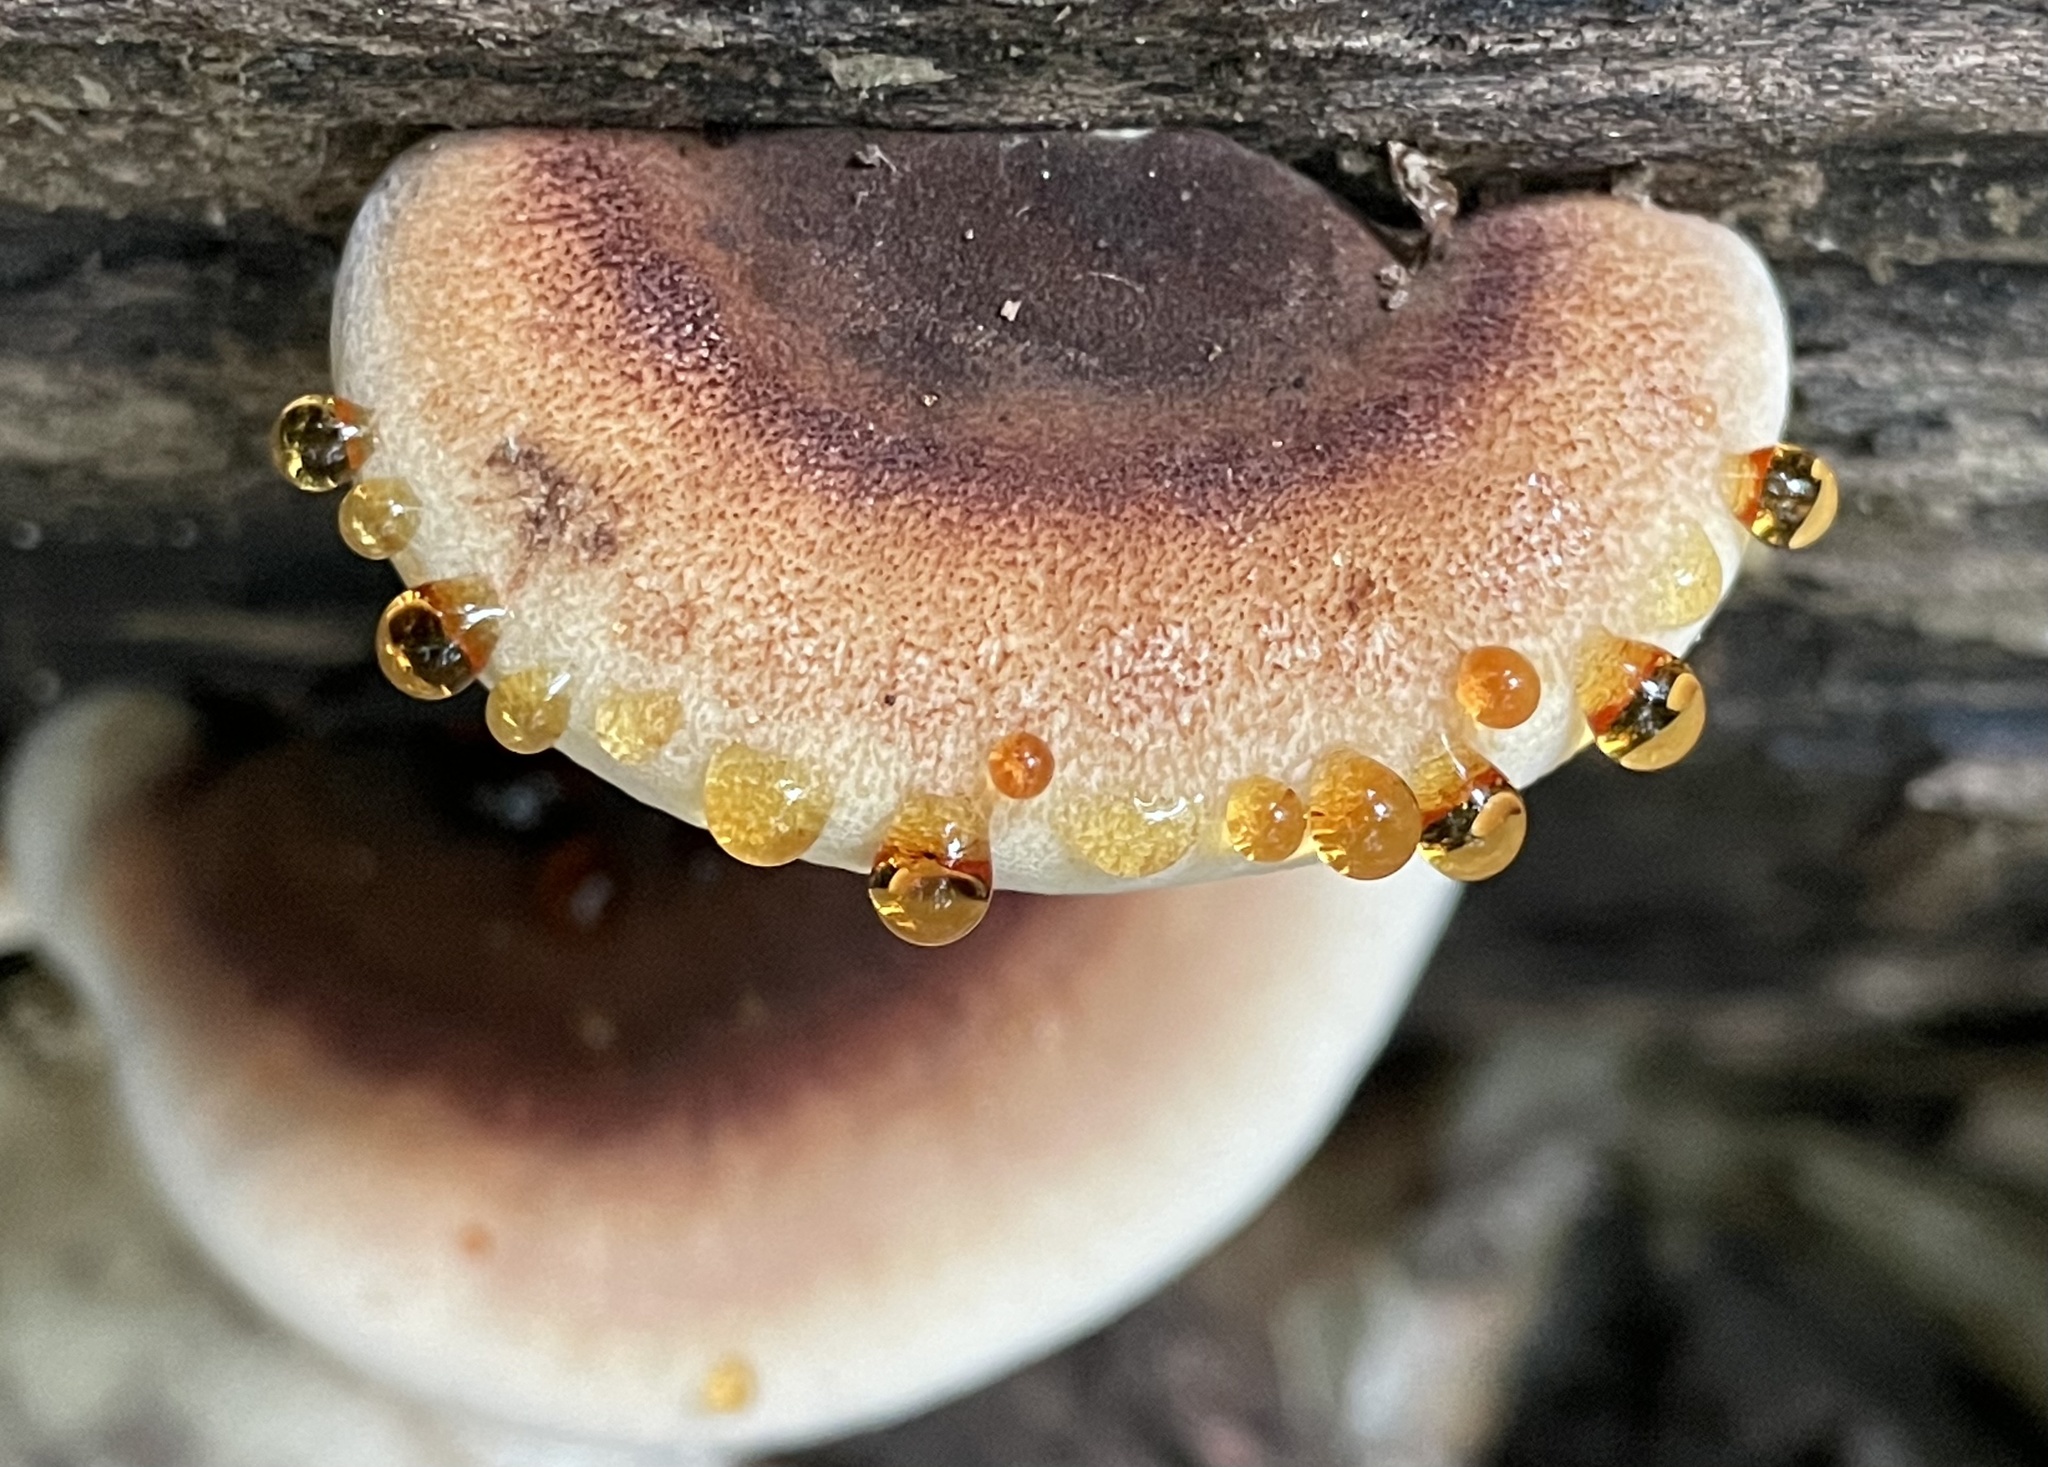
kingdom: Fungi
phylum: Basidiomycota
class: Agaricomycetes
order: Polyporales
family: Ischnodermataceae
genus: Ischnoderma
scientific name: Ischnoderma resinosum
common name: Resinous polypore
